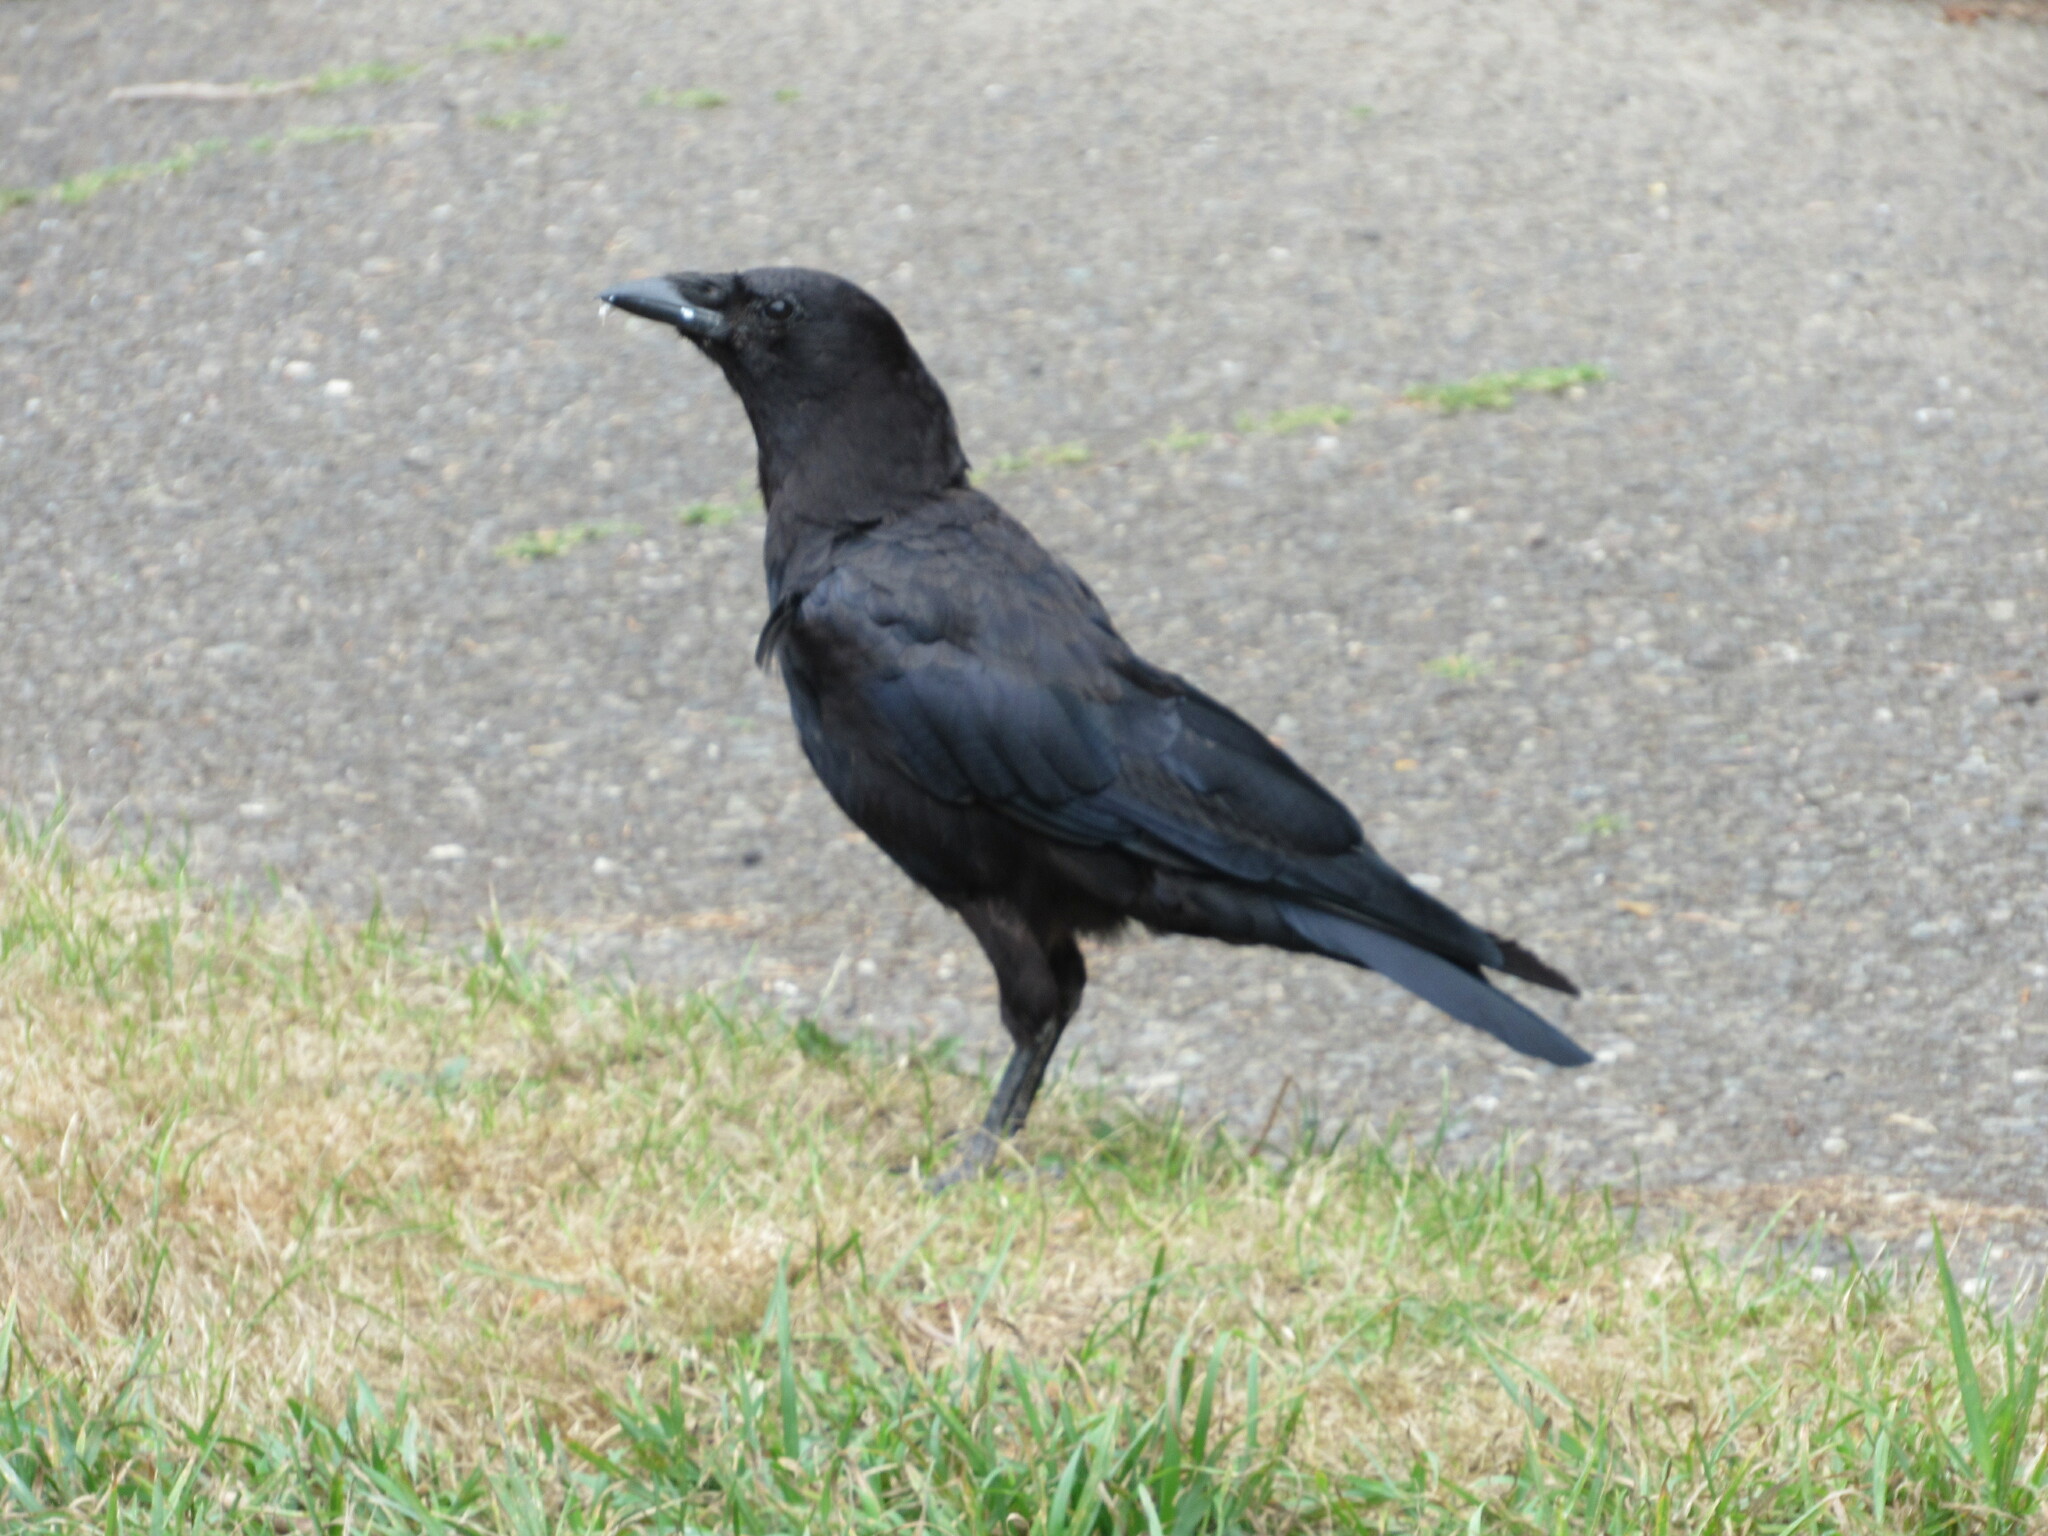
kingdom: Animalia
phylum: Chordata
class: Aves
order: Passeriformes
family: Corvidae
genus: Corvus
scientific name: Corvus brachyrhynchos
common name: American crow
